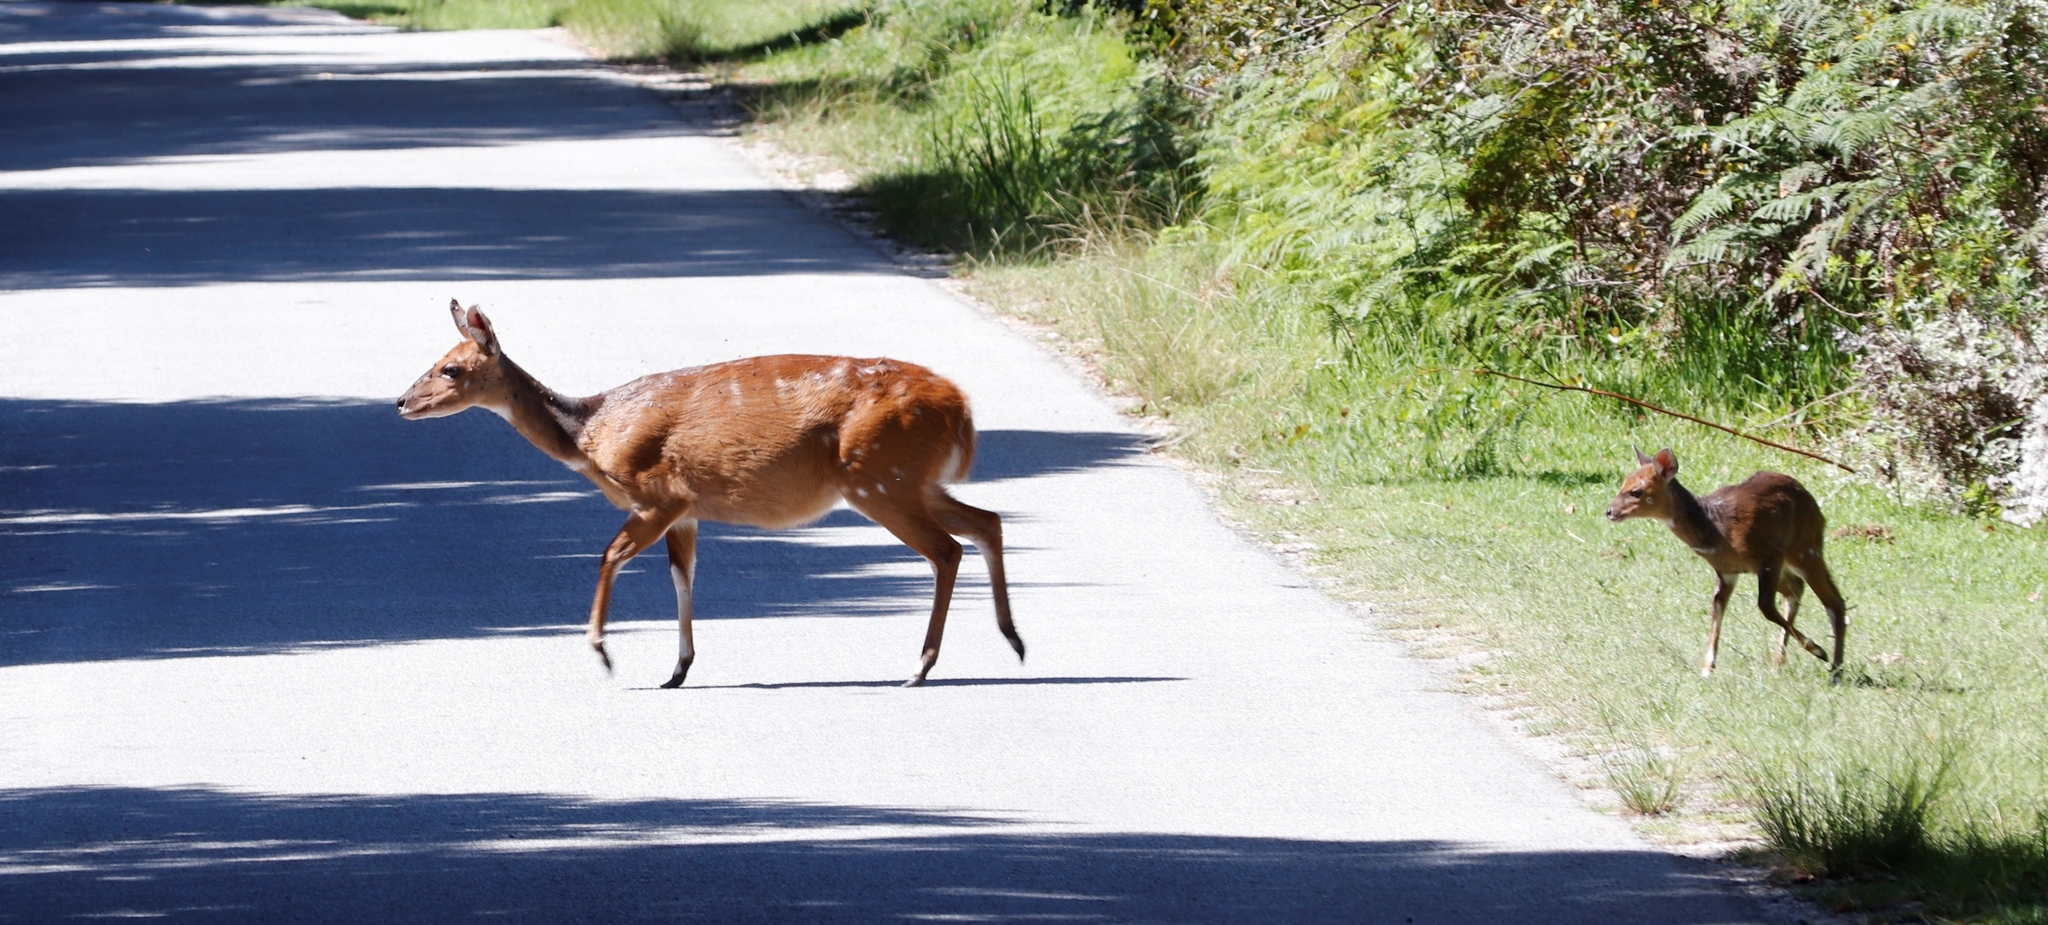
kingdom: Animalia
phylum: Chordata
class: Mammalia
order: Artiodactyla
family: Bovidae
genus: Tragelaphus
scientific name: Tragelaphus scriptus
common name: Bushbuck
